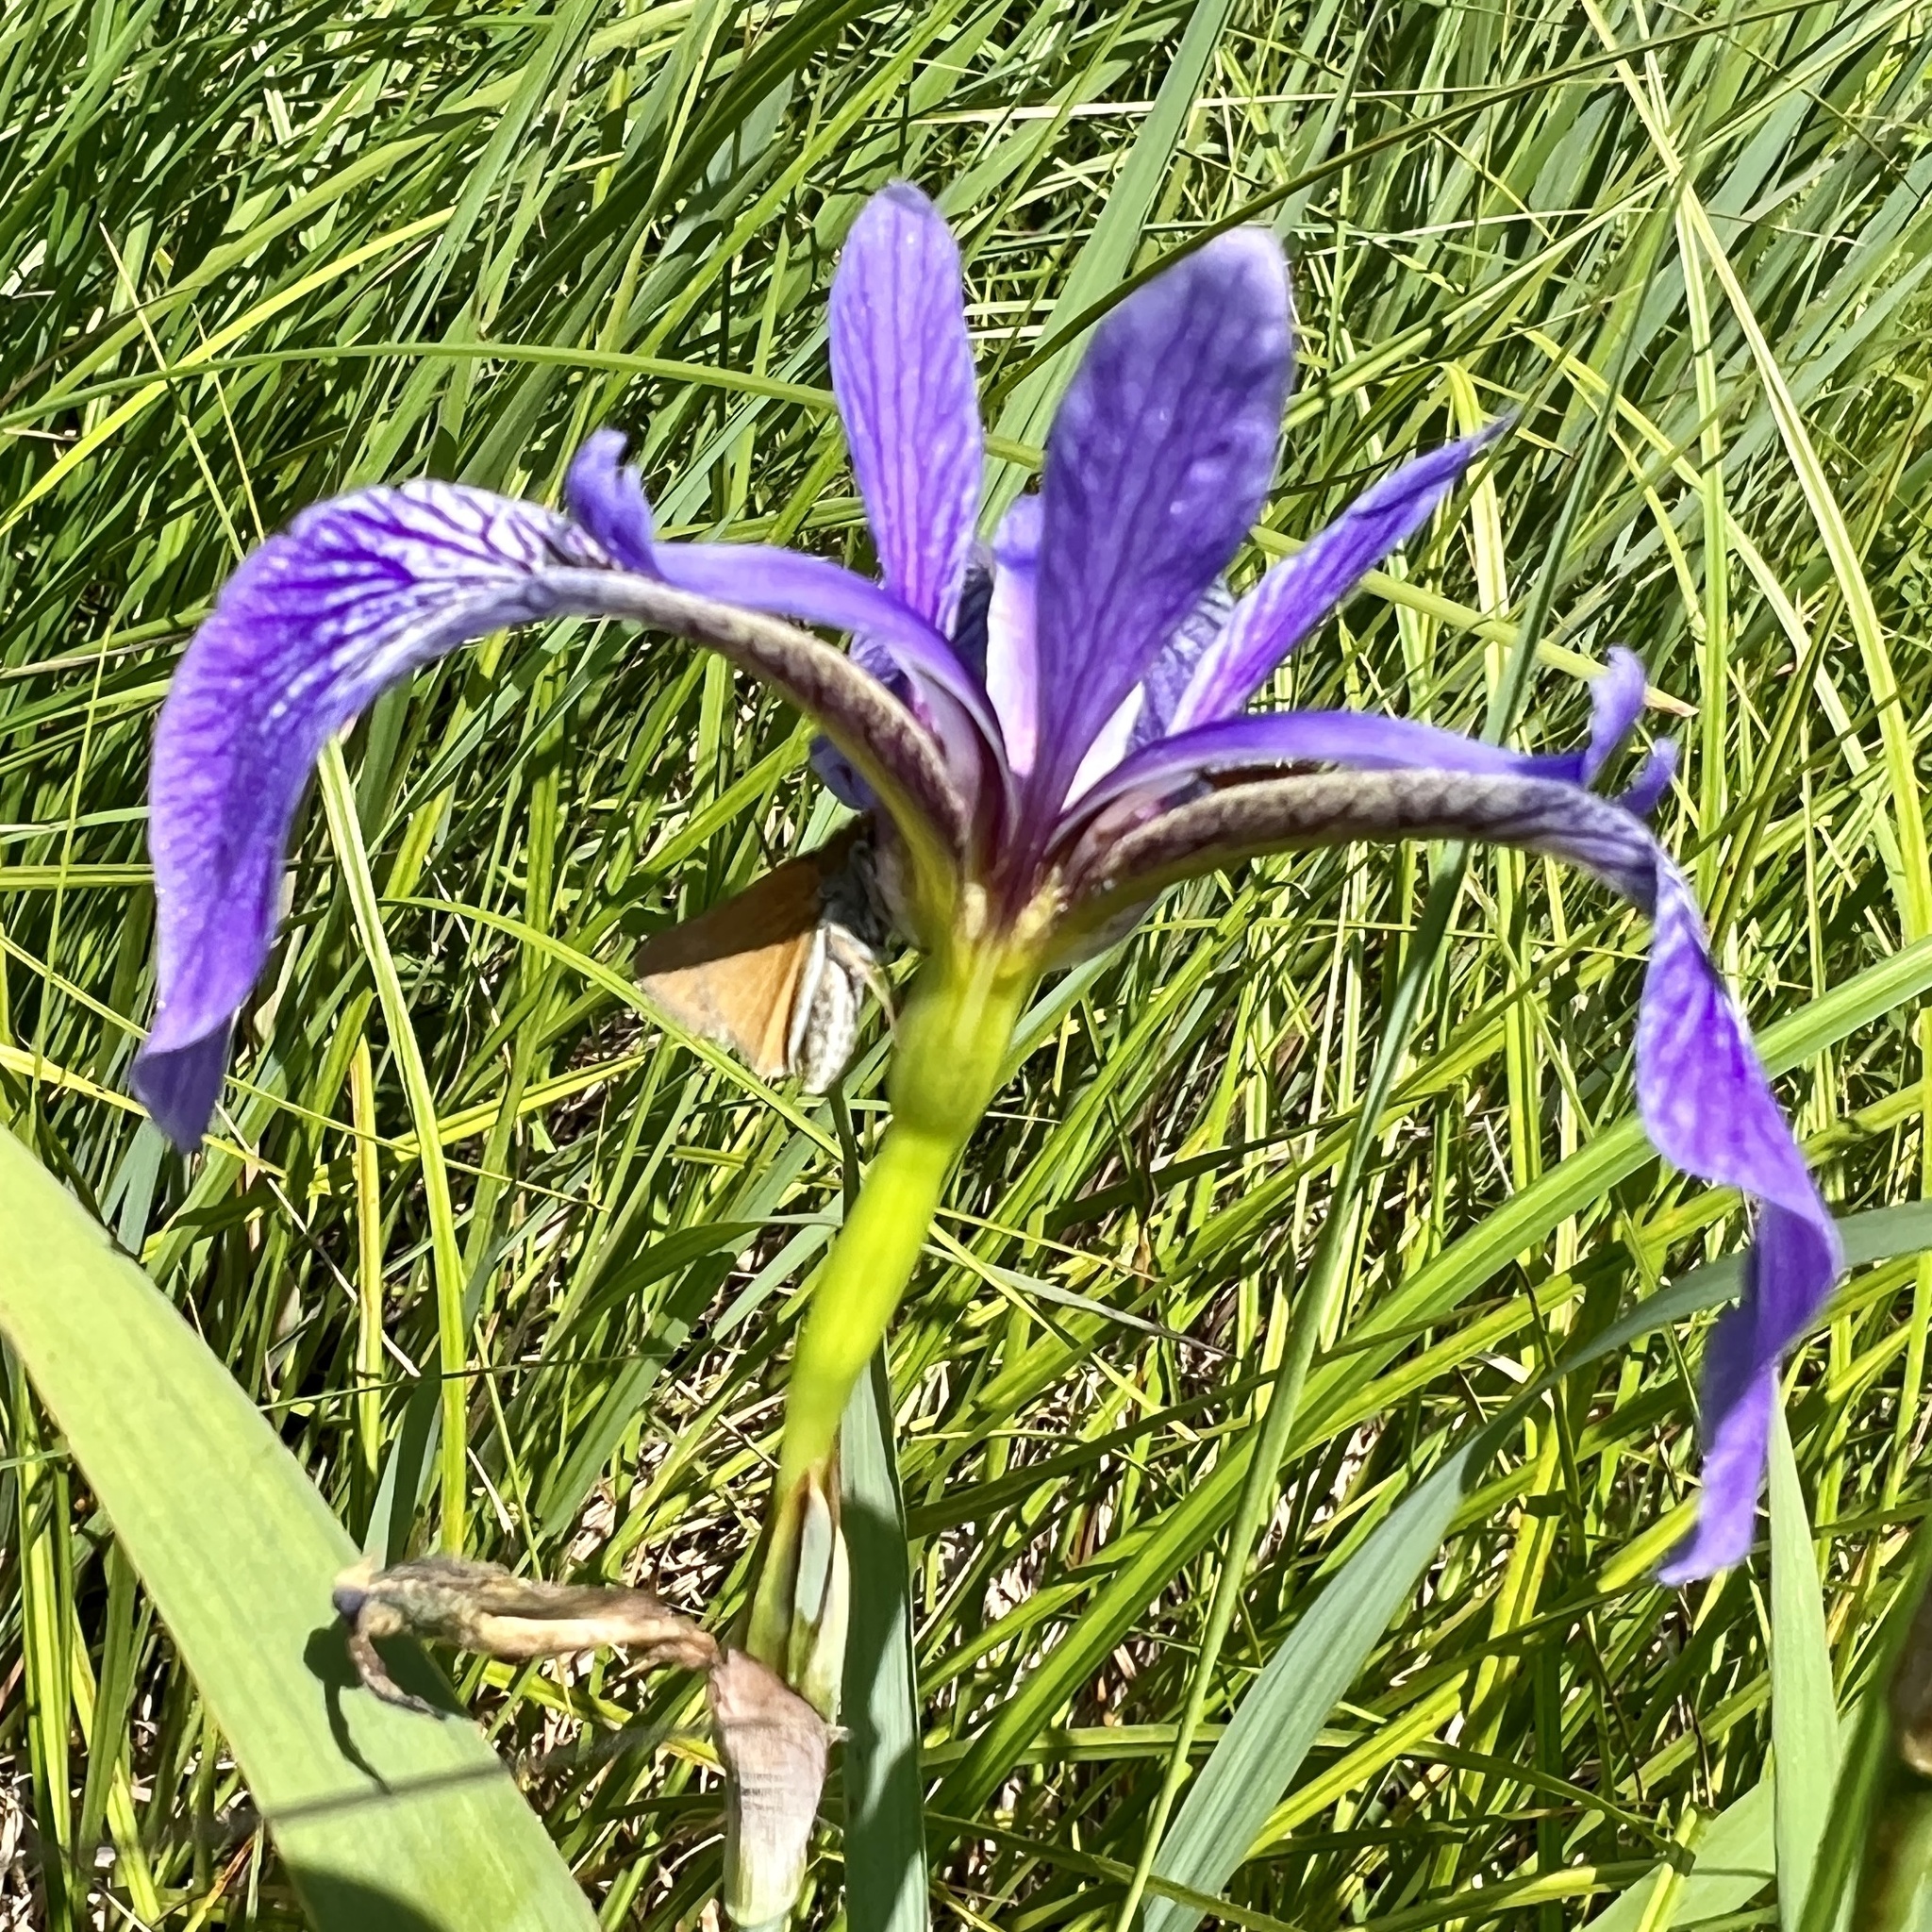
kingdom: Plantae
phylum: Tracheophyta
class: Liliopsida
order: Asparagales
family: Iridaceae
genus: Iris
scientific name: Iris versicolor
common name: Purple iris
